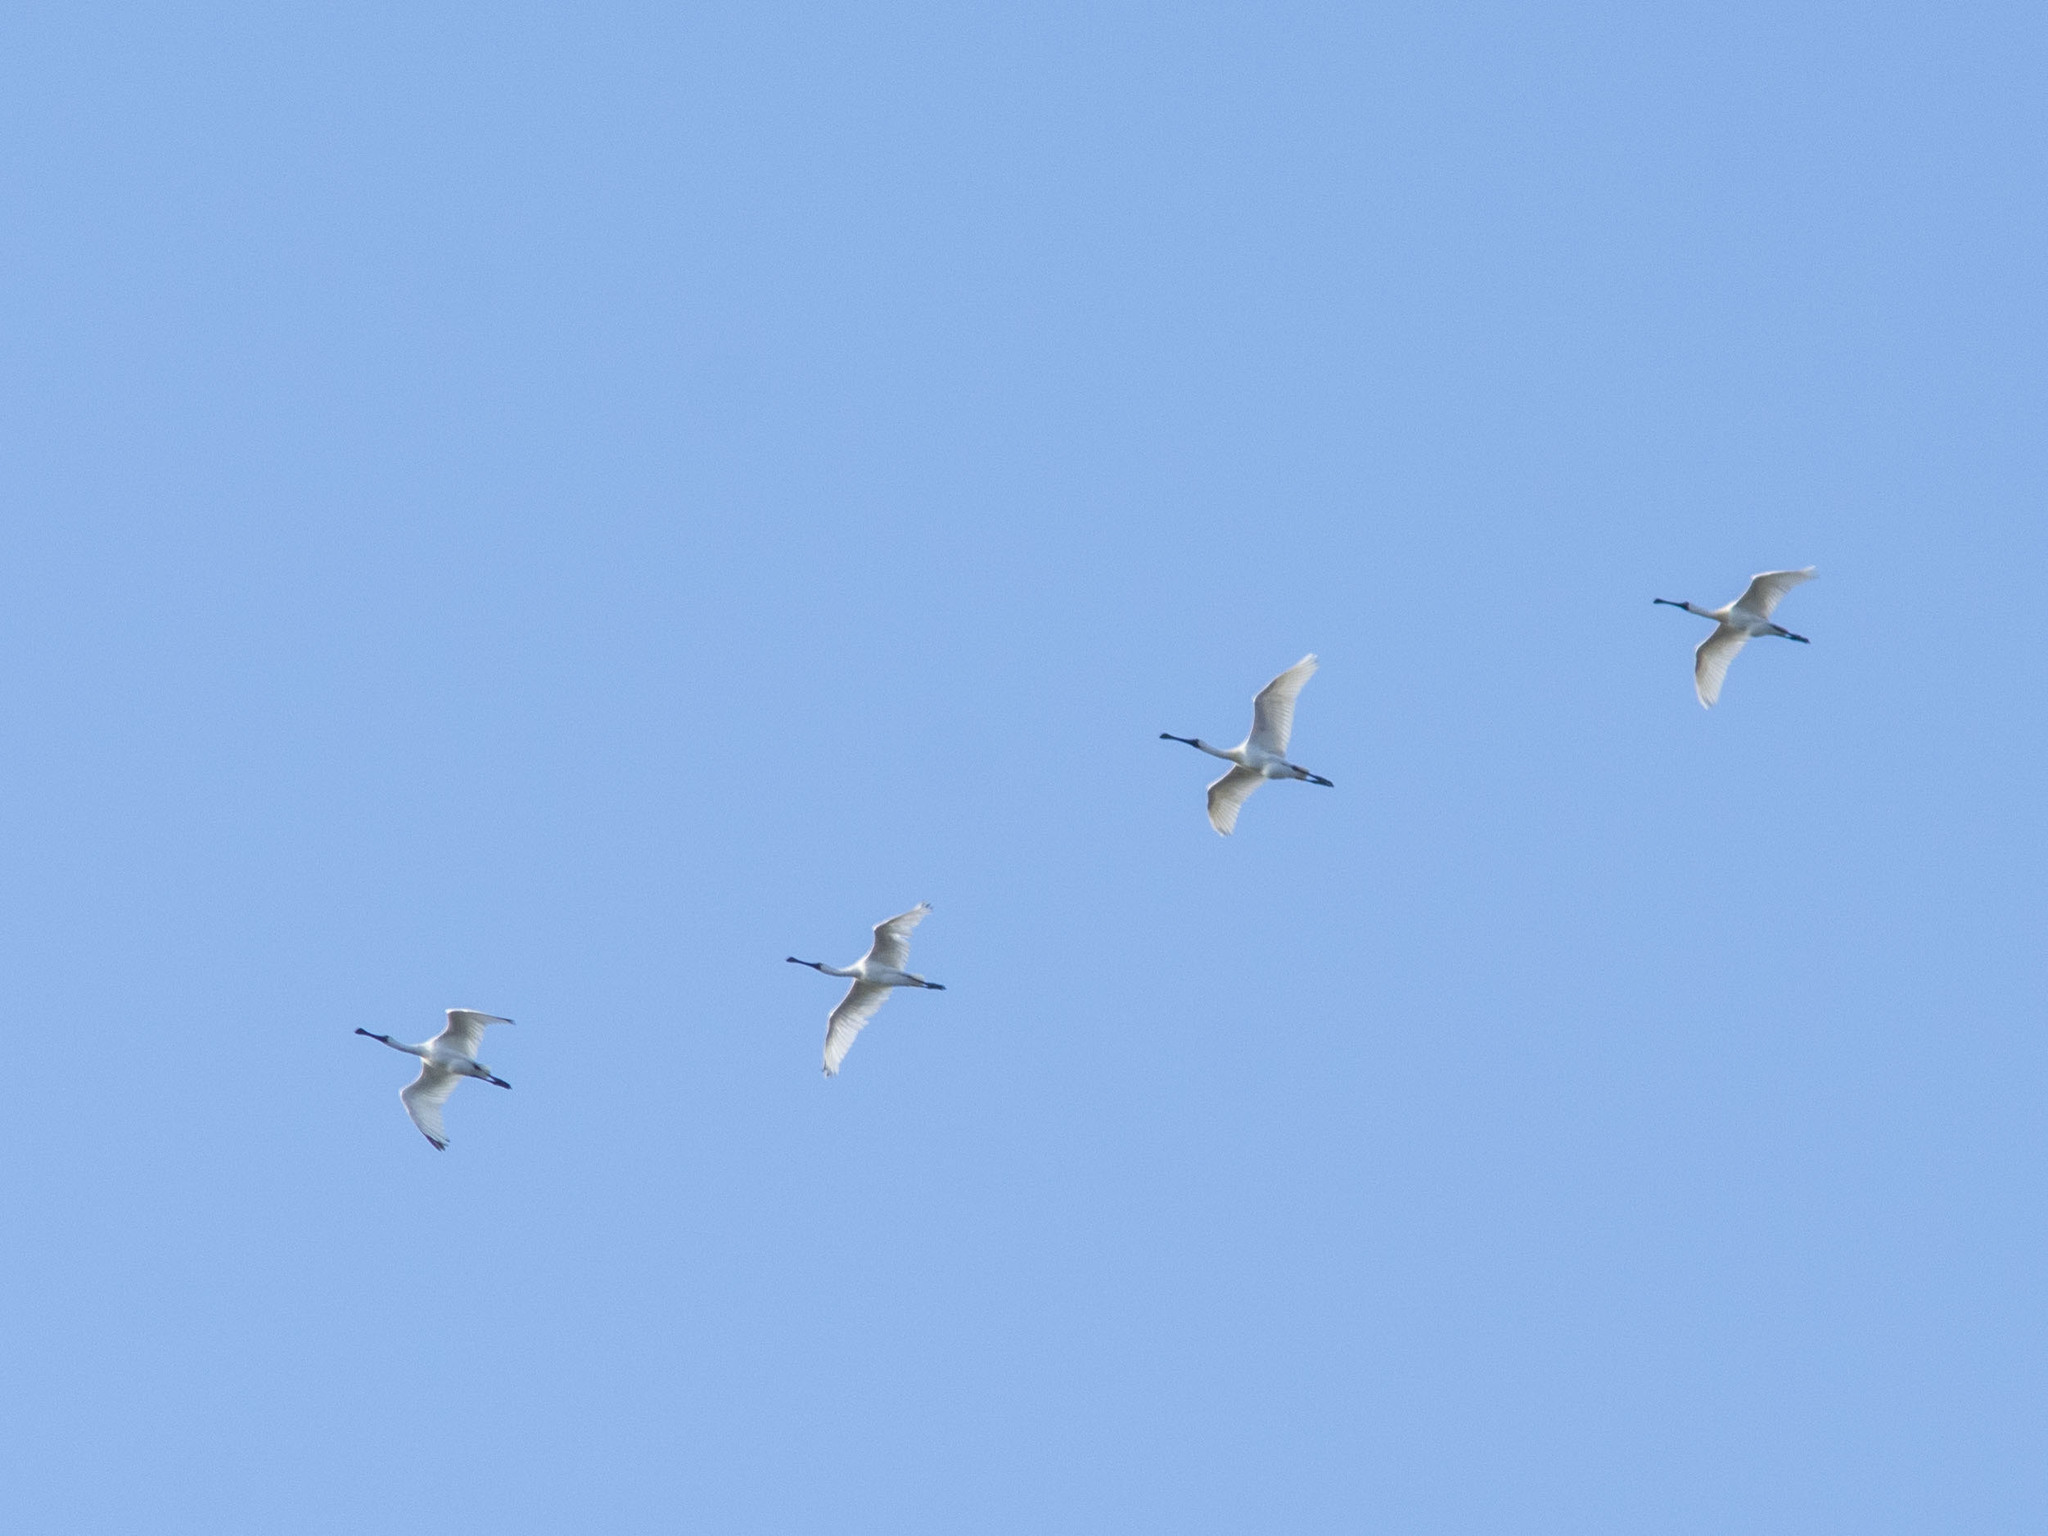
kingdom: Animalia
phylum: Chordata
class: Aves
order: Pelecaniformes
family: Threskiornithidae
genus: Platalea
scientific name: Platalea minor
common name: Black-faced spoonbill
